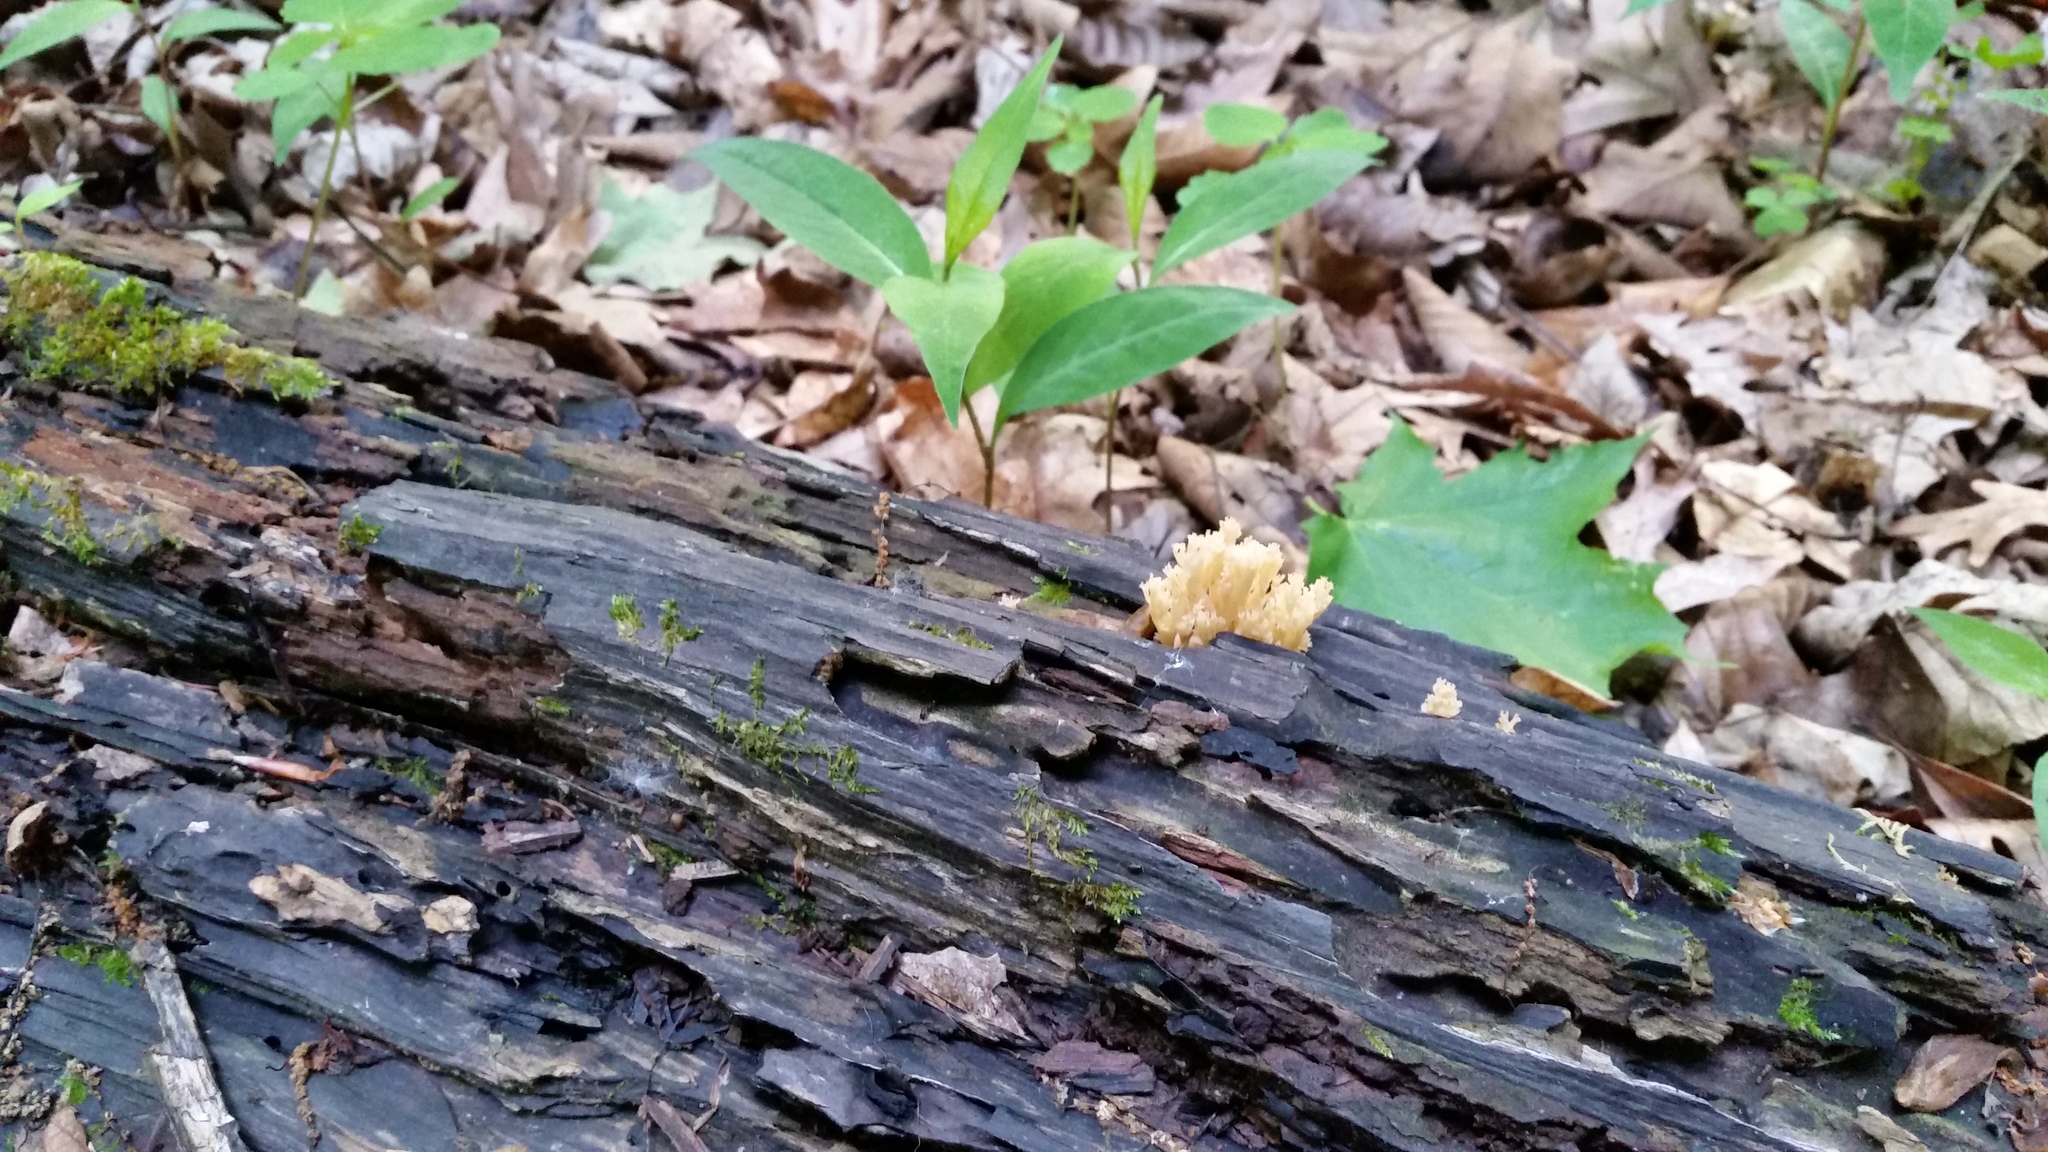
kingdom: Fungi
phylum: Basidiomycota
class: Agaricomycetes
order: Russulales
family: Auriscalpiaceae
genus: Artomyces
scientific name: Artomyces pyxidatus
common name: Crown-tipped coral fungus
